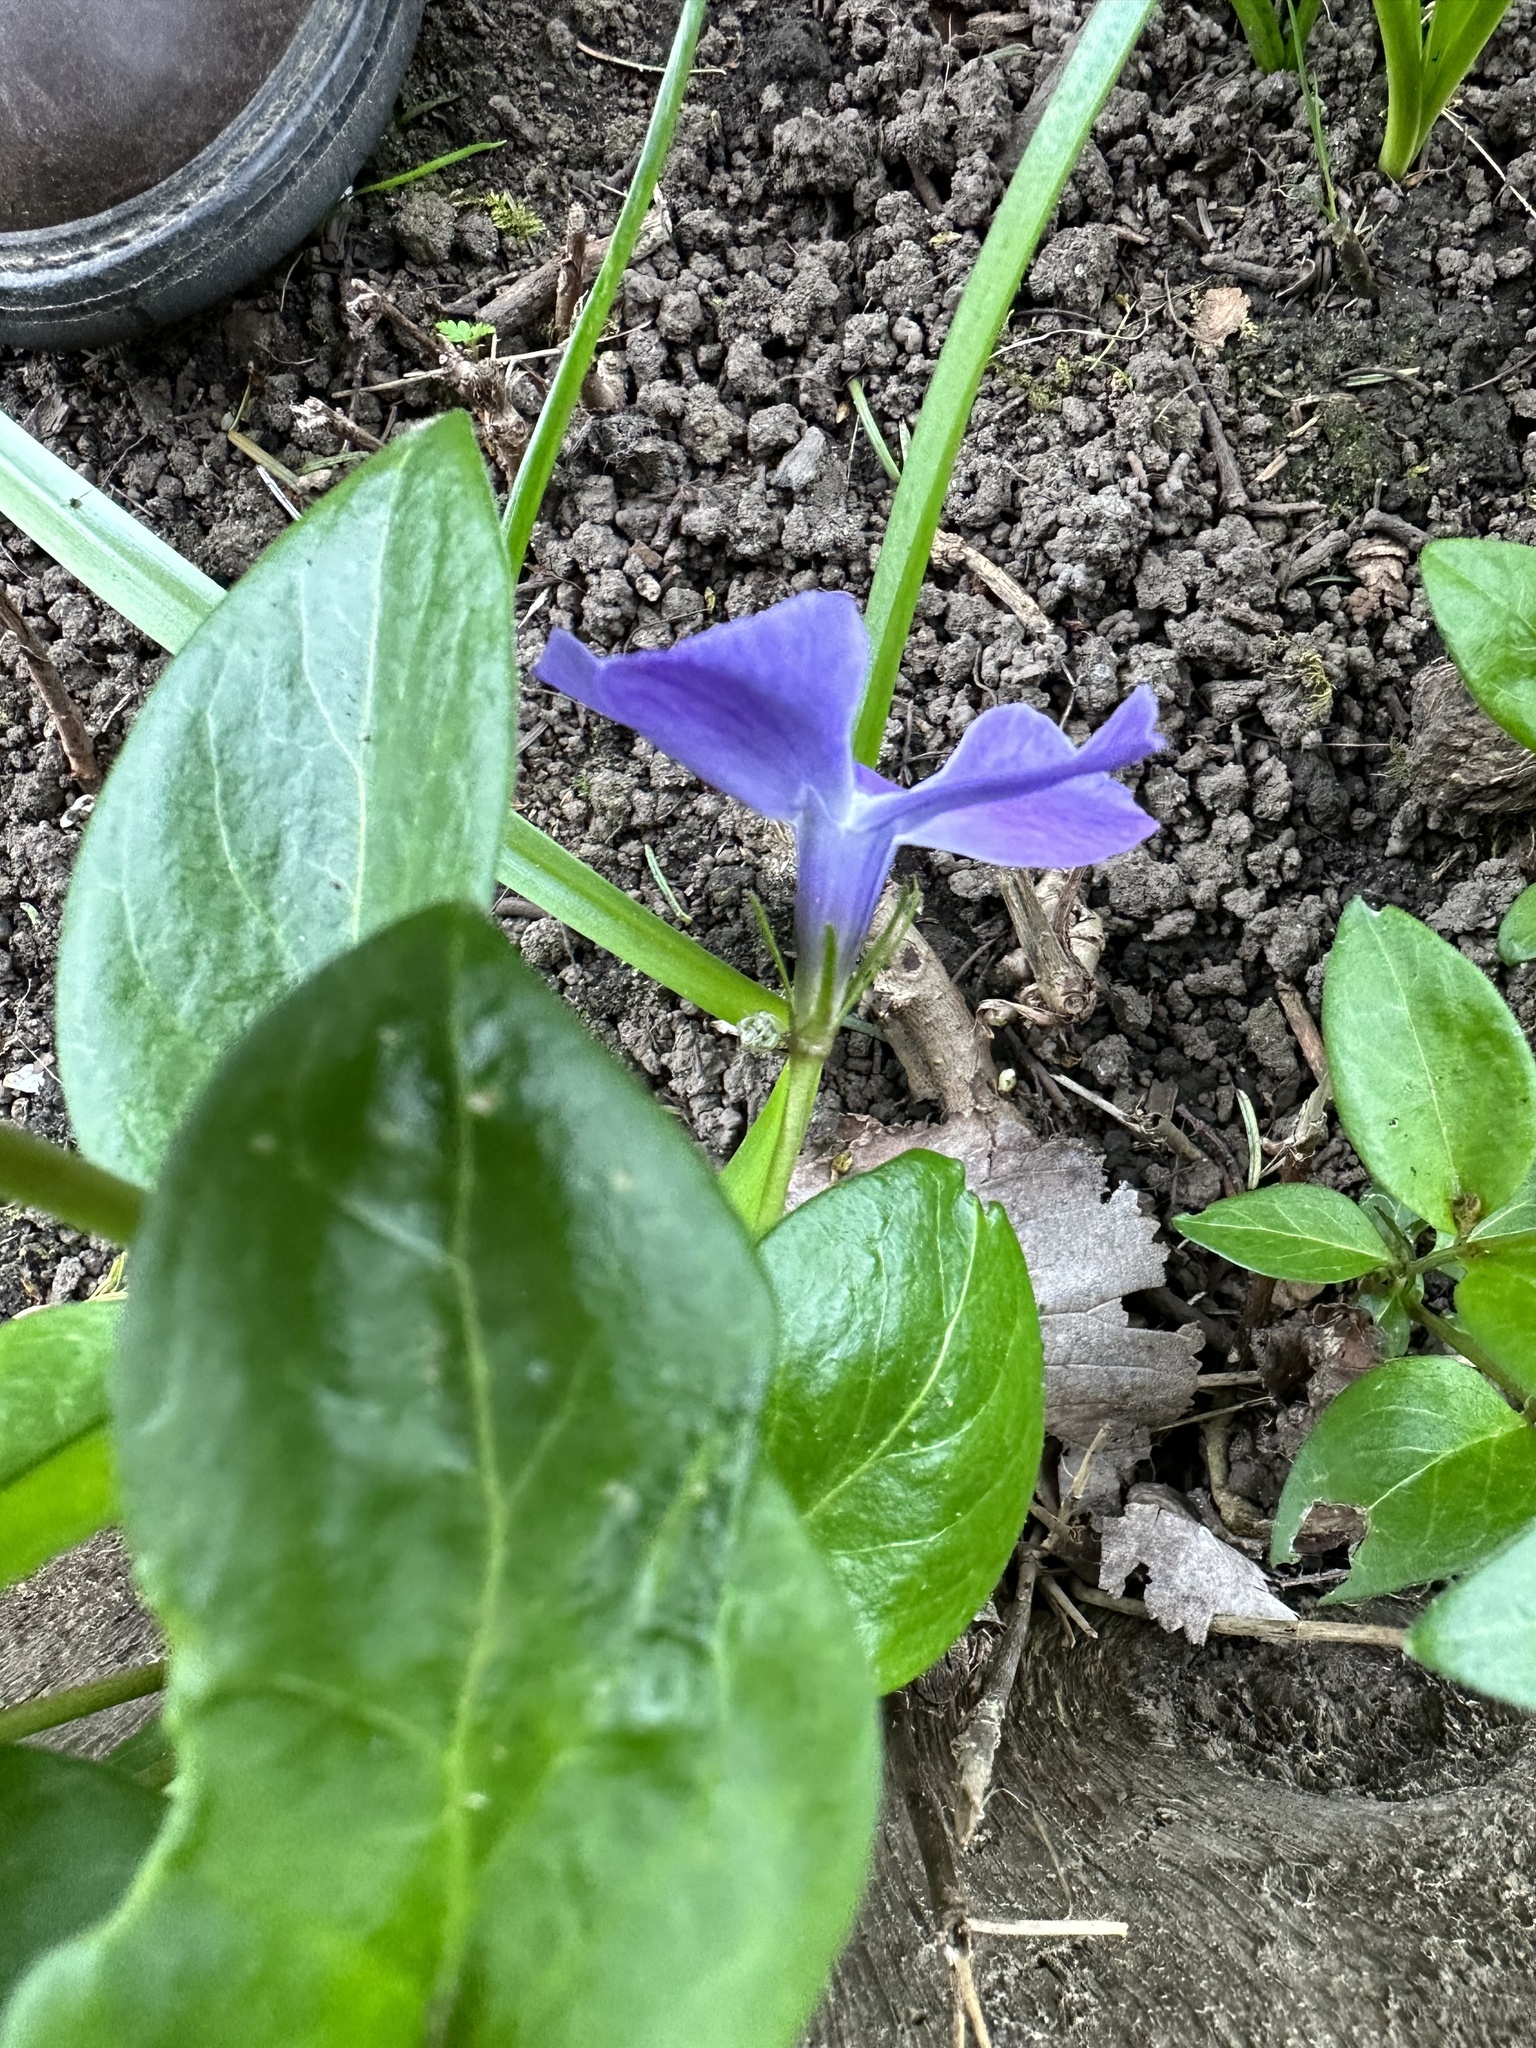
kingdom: Plantae
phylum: Tracheophyta
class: Magnoliopsida
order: Gentianales
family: Apocynaceae
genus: Vinca
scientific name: Vinca major
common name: Greater periwinkle
